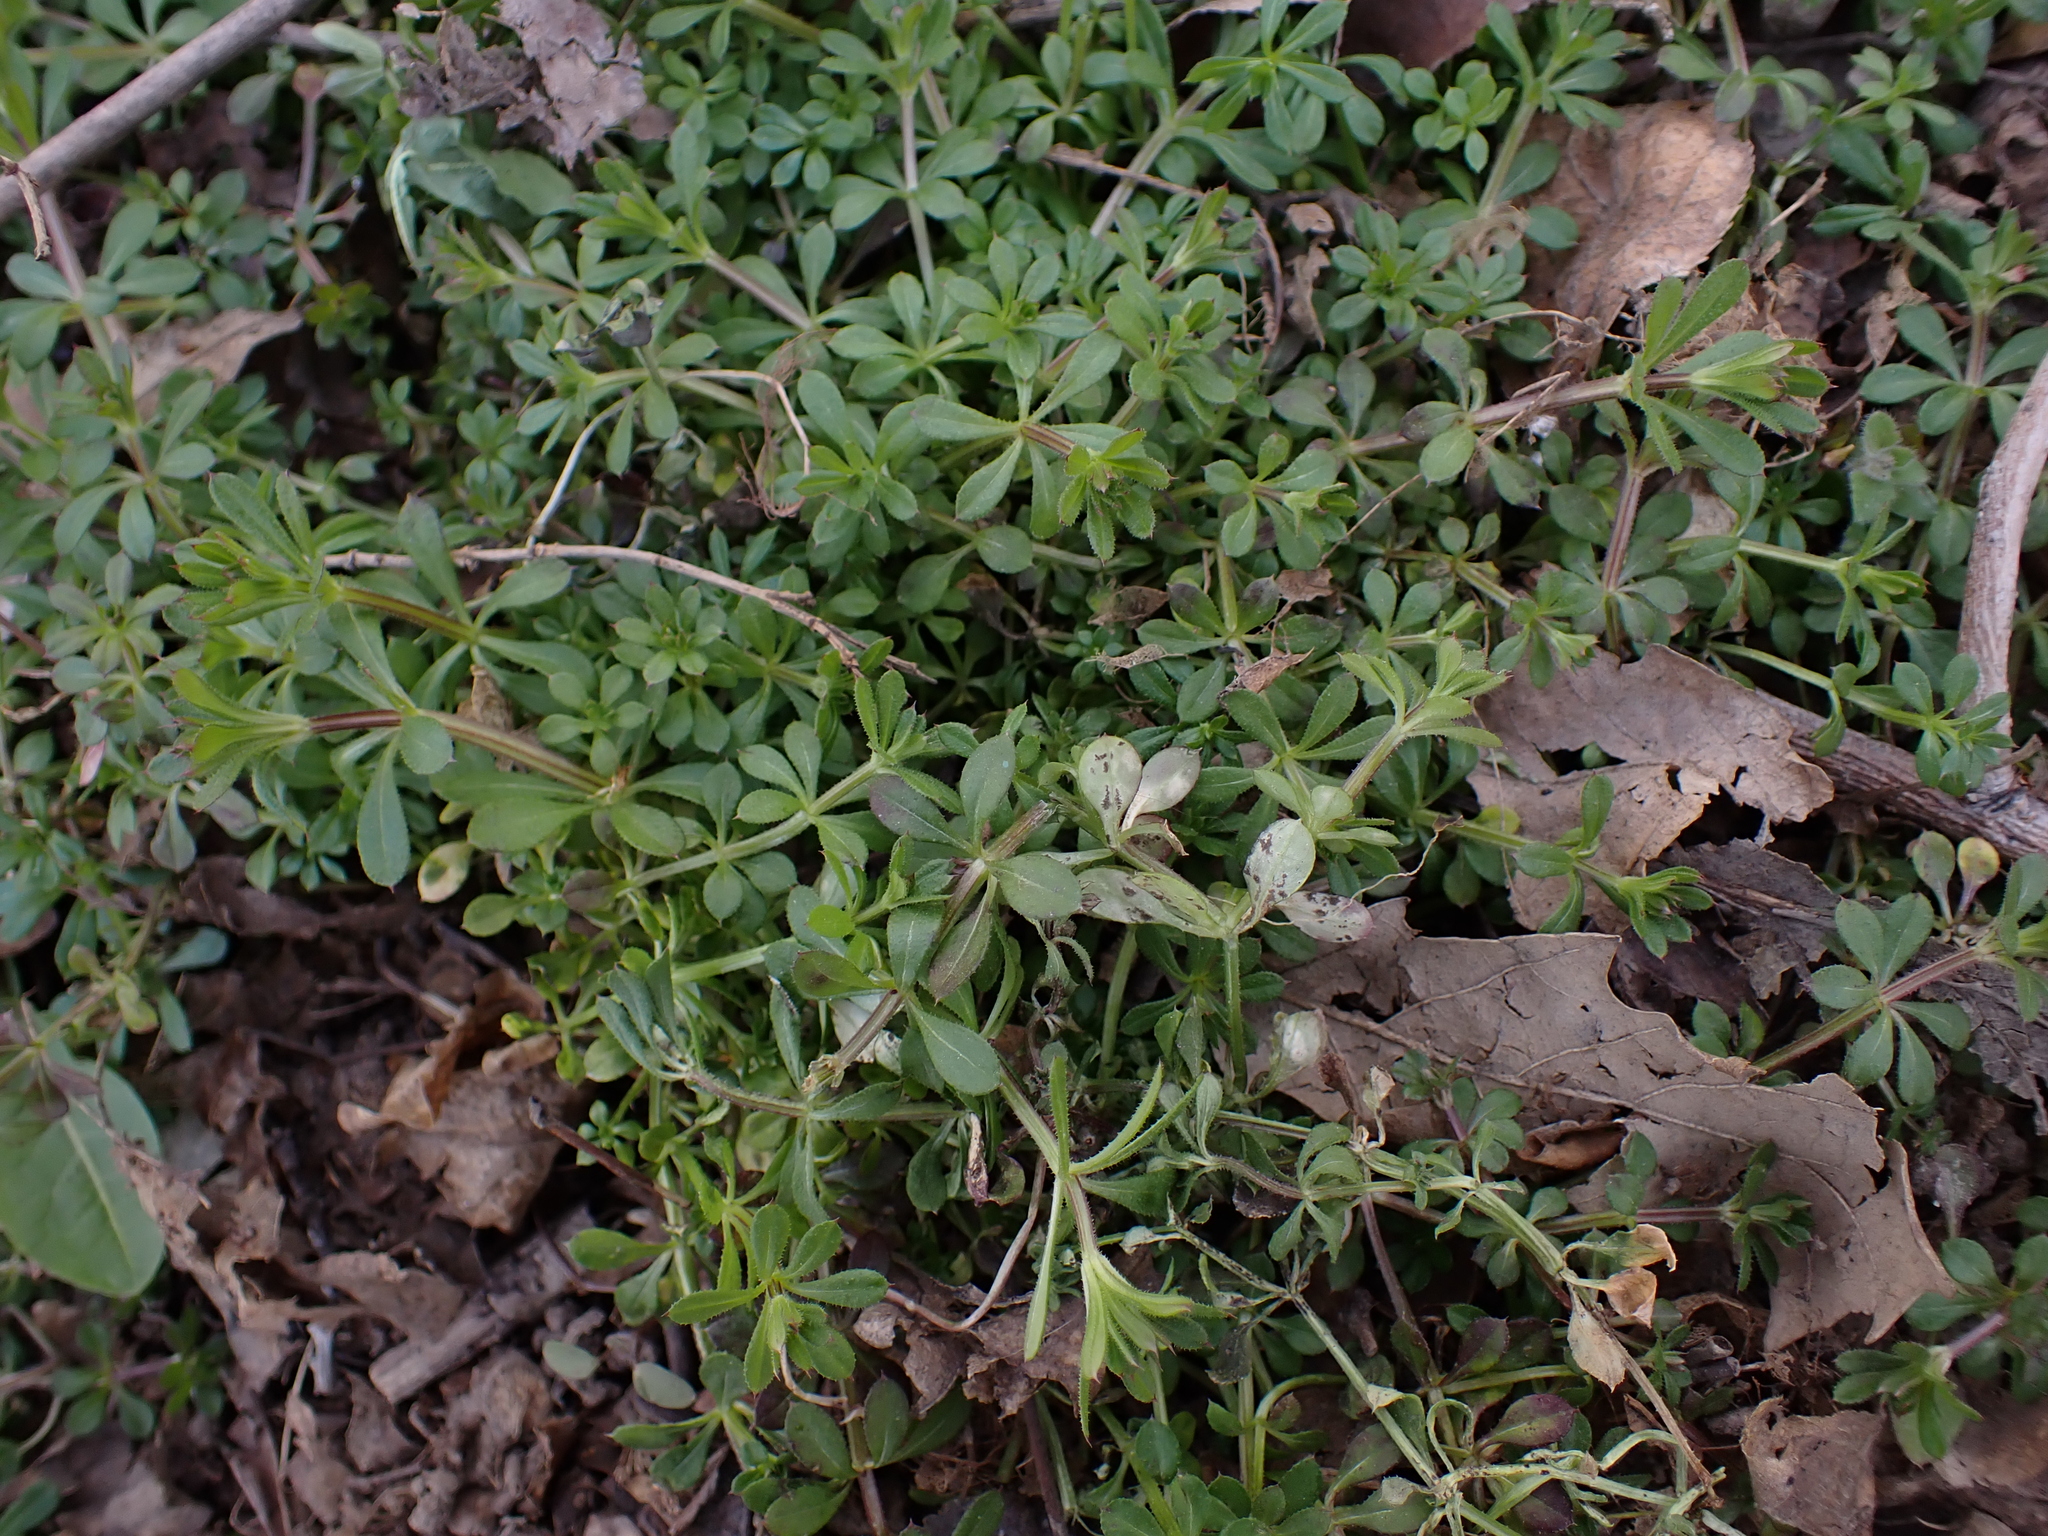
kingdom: Plantae
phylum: Tracheophyta
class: Magnoliopsida
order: Gentianales
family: Rubiaceae
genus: Galium
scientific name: Galium aparine
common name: Cleavers
